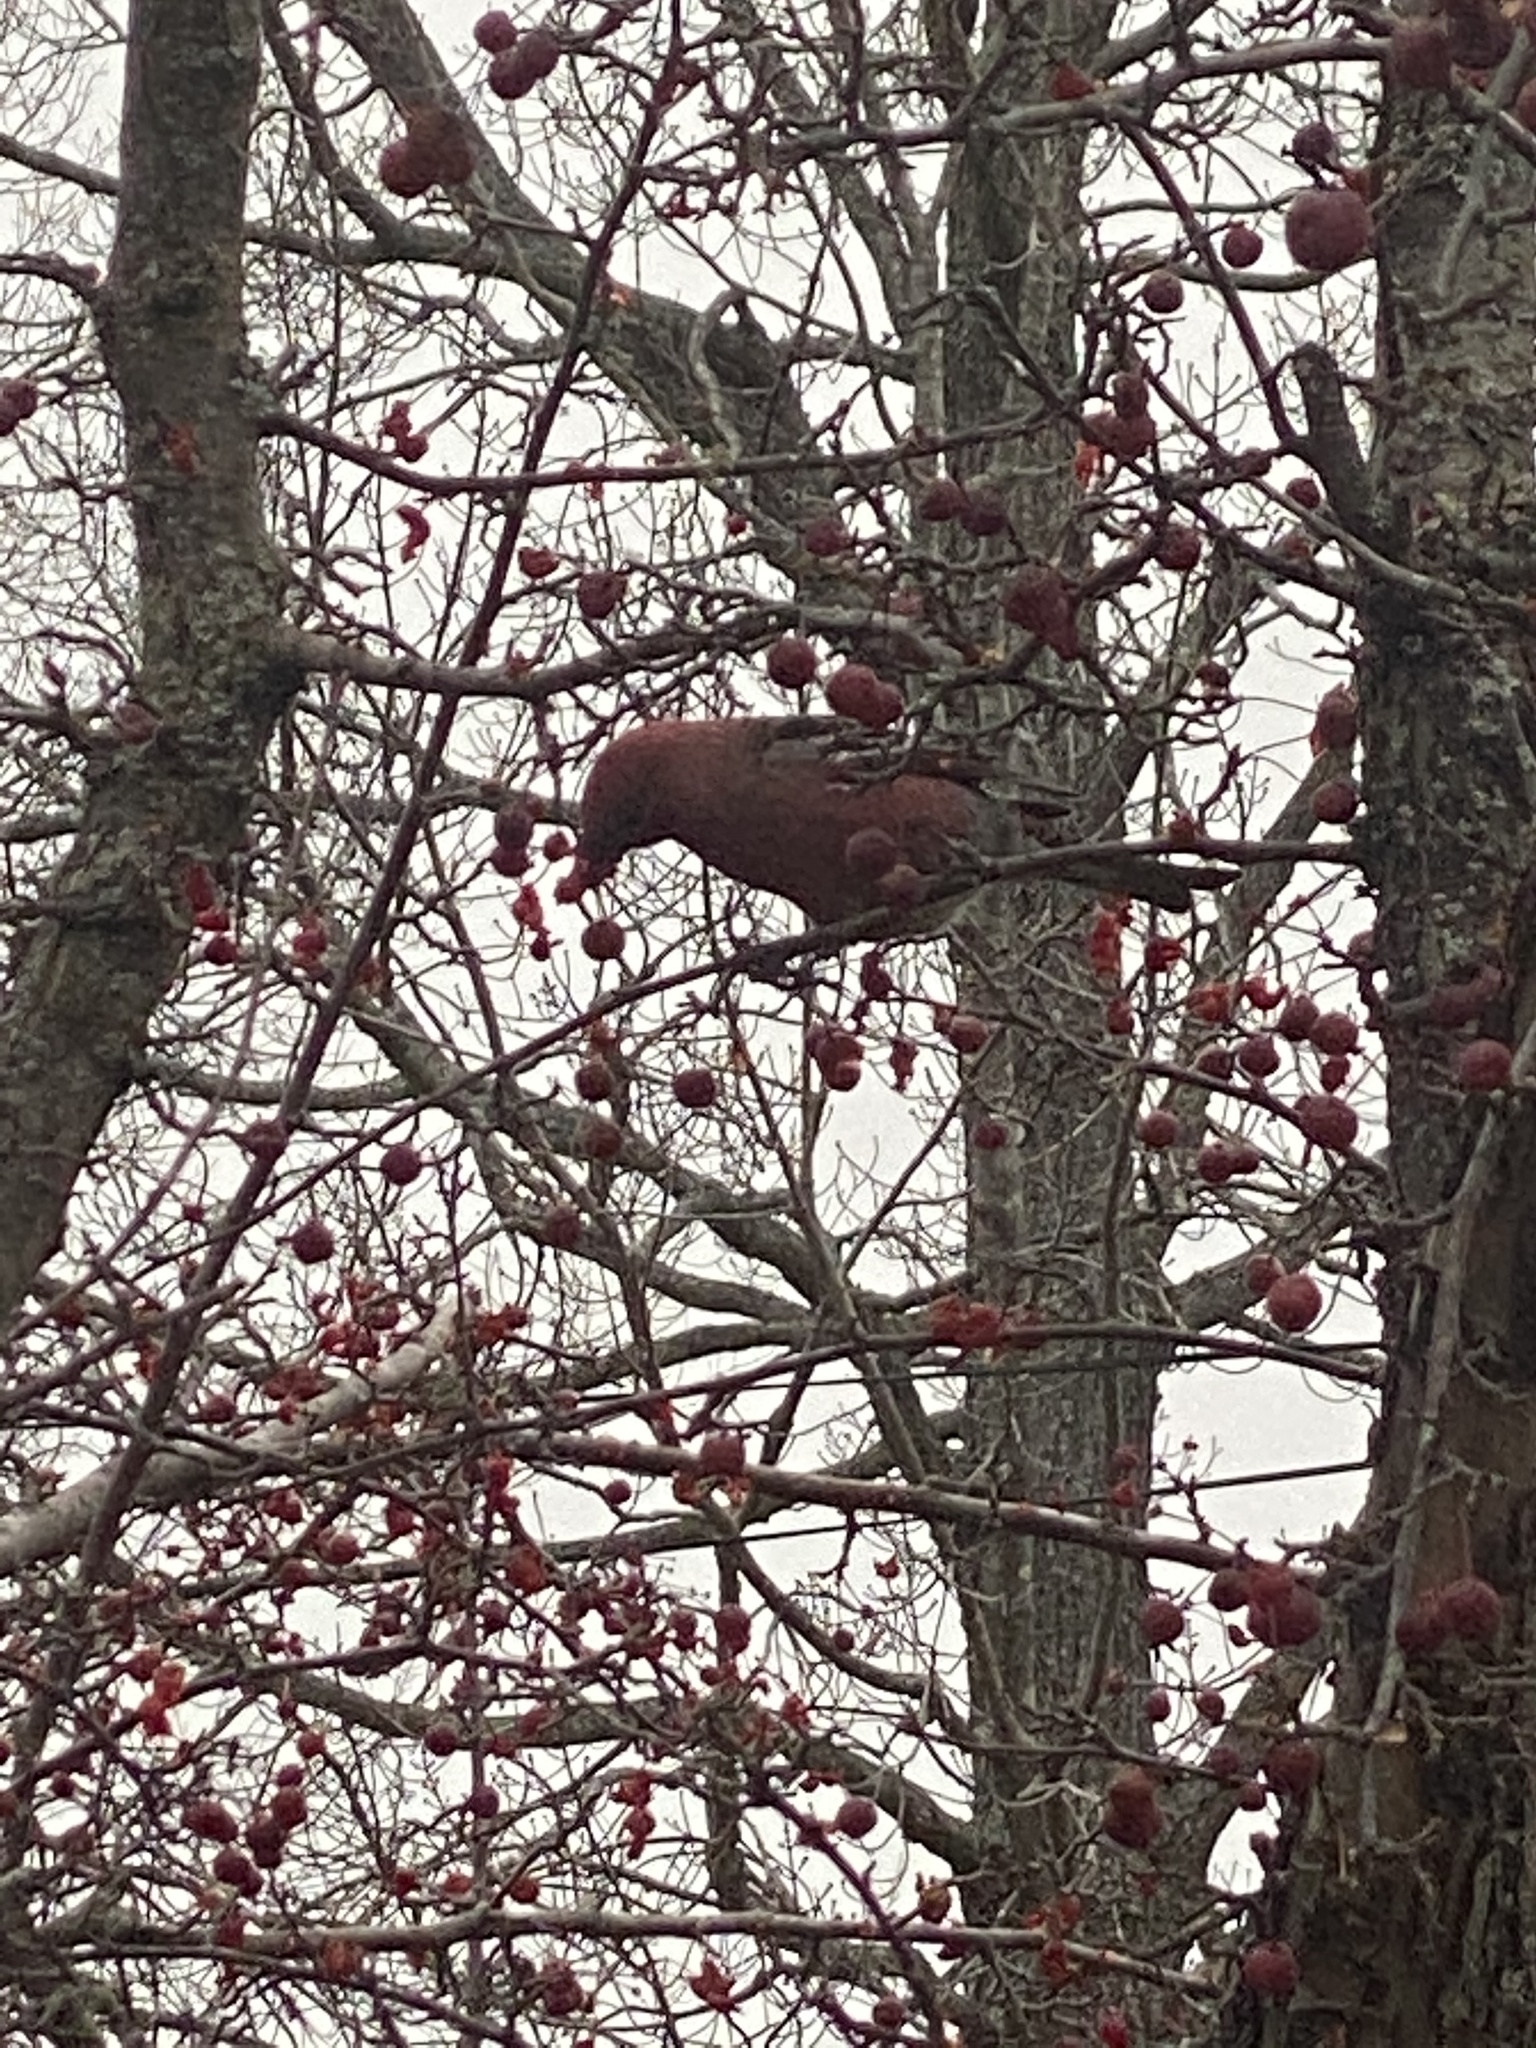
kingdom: Animalia
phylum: Chordata
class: Aves
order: Passeriformes
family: Fringillidae
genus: Pinicola
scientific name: Pinicola enucleator
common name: Pine grosbeak
